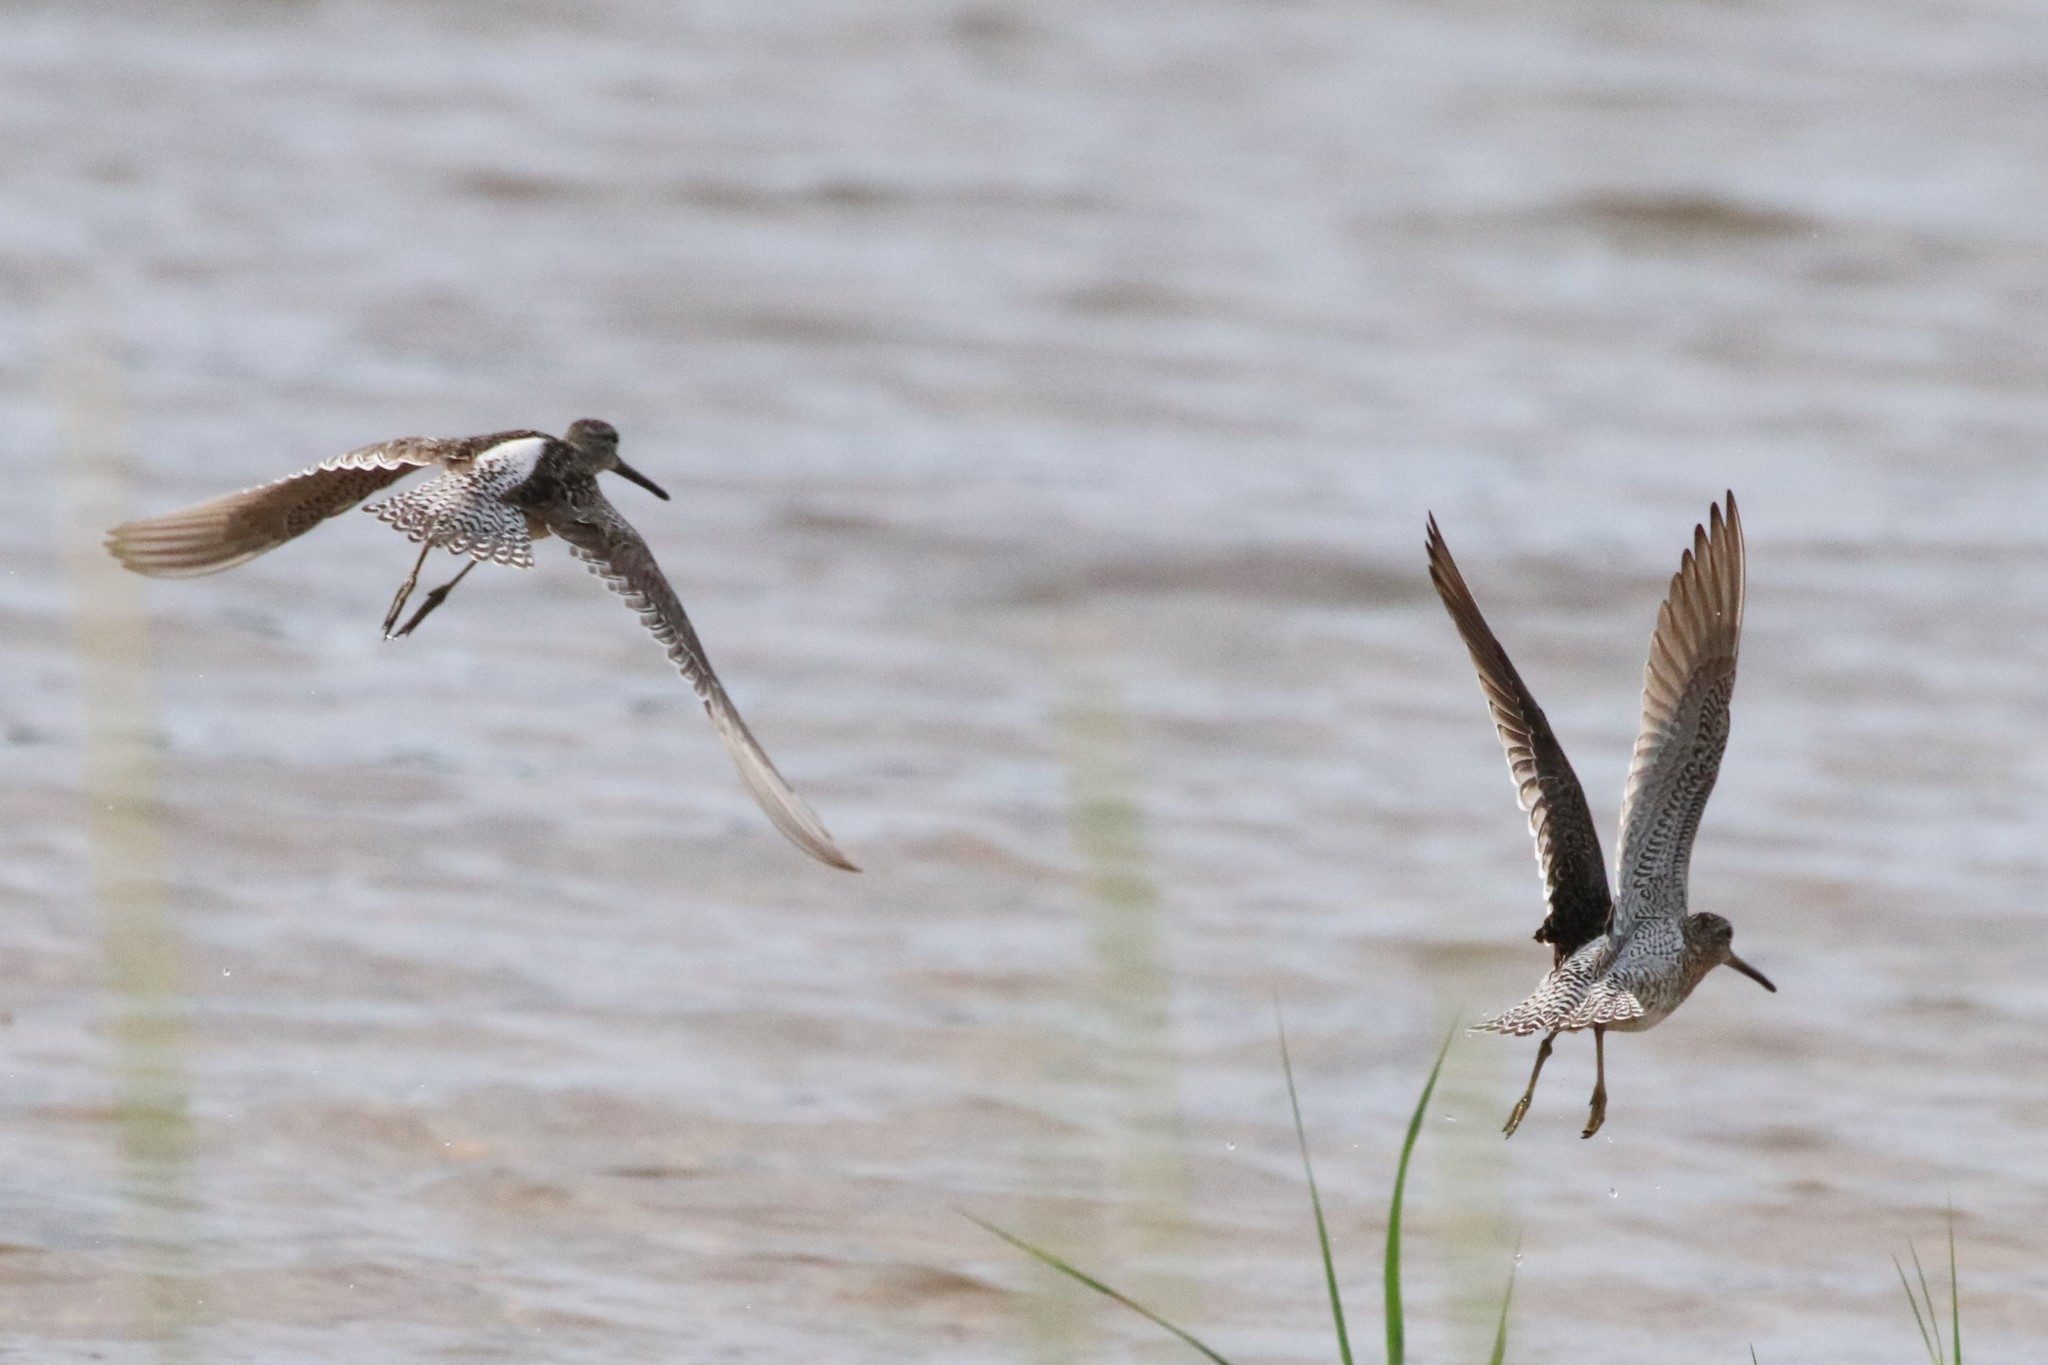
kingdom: Animalia
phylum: Chordata
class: Aves
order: Charadriiformes
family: Scolopacidae
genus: Limnodromus
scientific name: Limnodromus griseus
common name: Short-billed dowitcher
